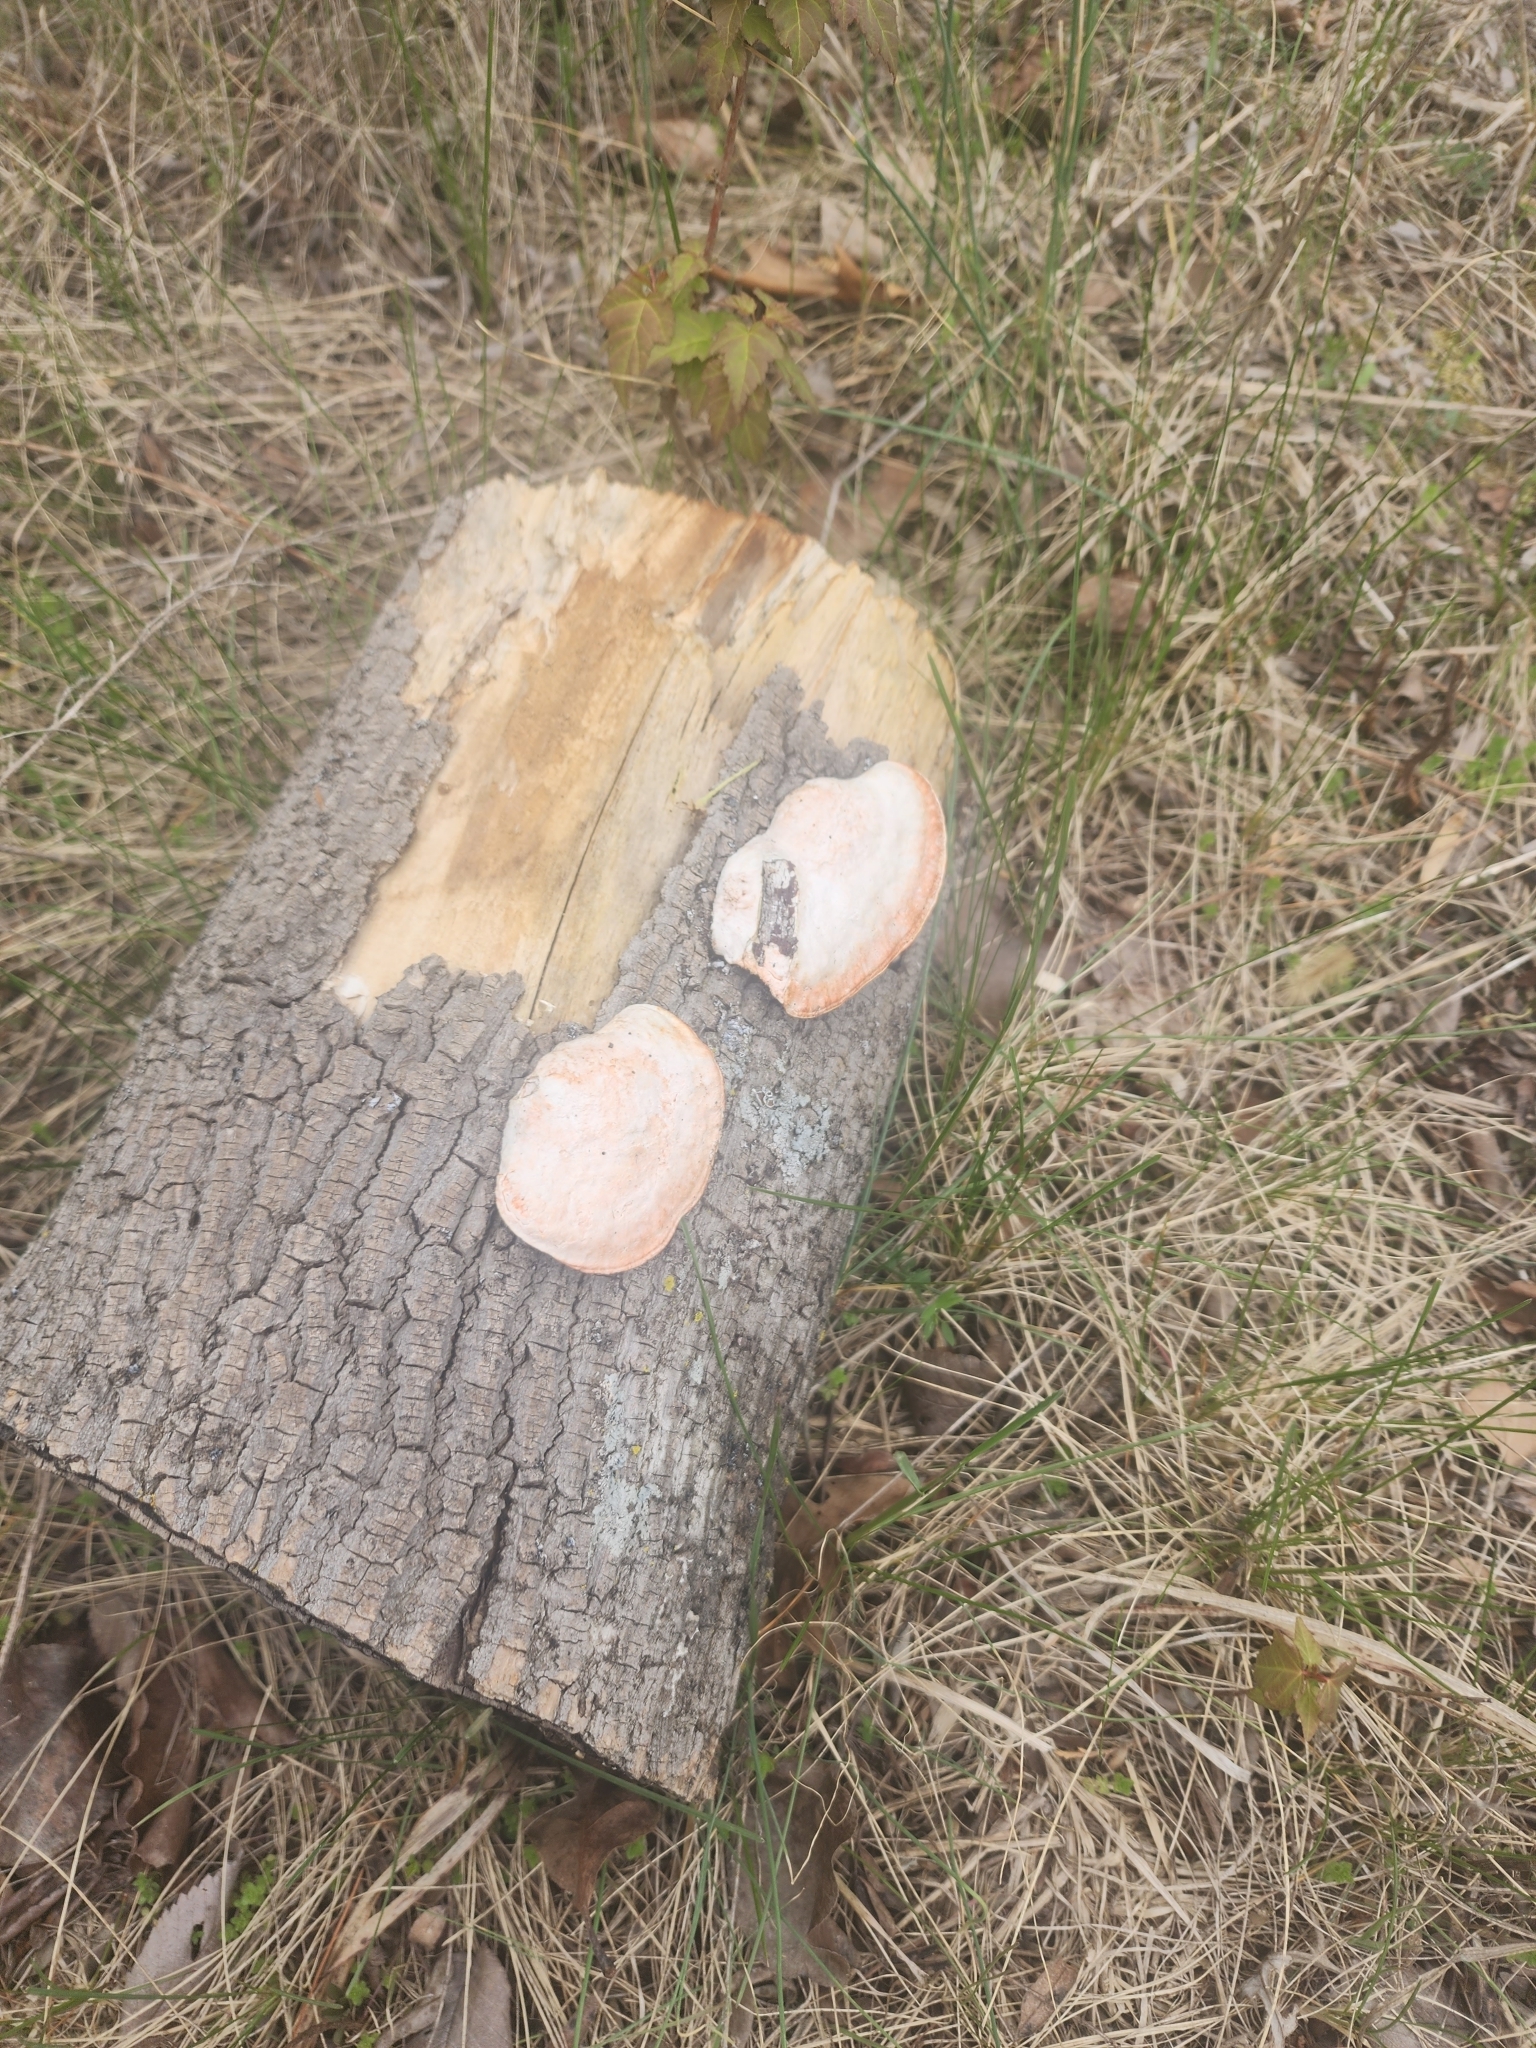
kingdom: Fungi
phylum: Basidiomycota
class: Agaricomycetes
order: Polyporales
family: Polyporaceae
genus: Trametes
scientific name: Trametes cinnabarina
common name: Northern cinnabar polypore
